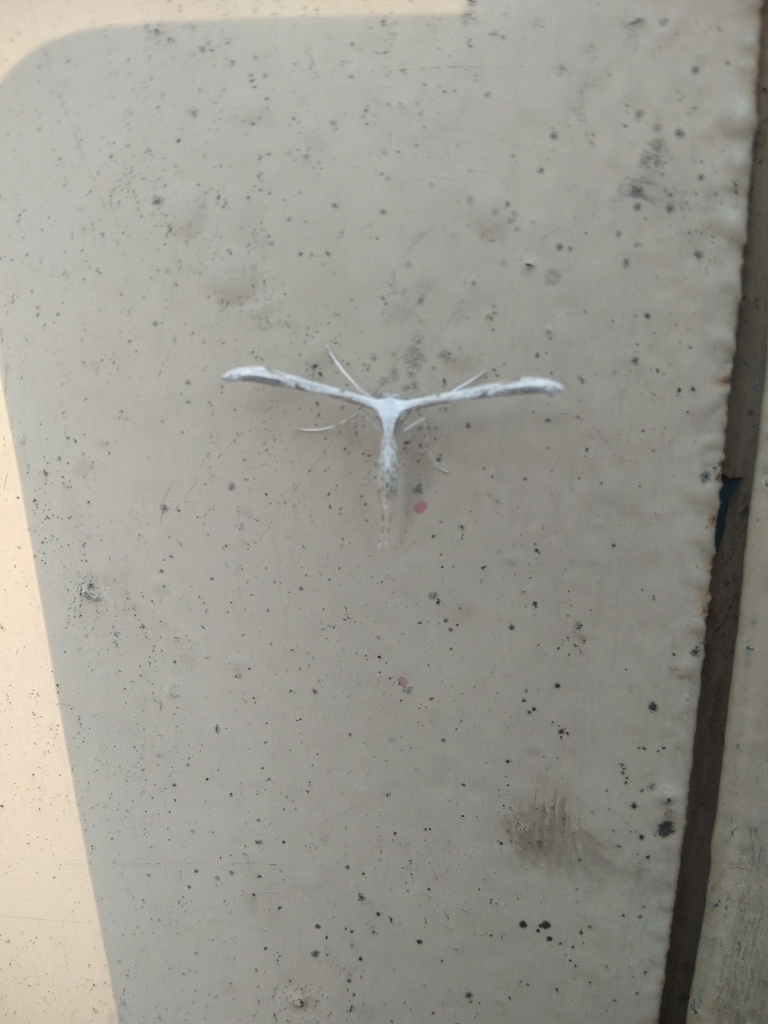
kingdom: Animalia
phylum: Arthropoda
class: Insecta
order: Lepidoptera
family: Pterophoridae
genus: Emmelina
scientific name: Emmelina monodactyla
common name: Common plume
